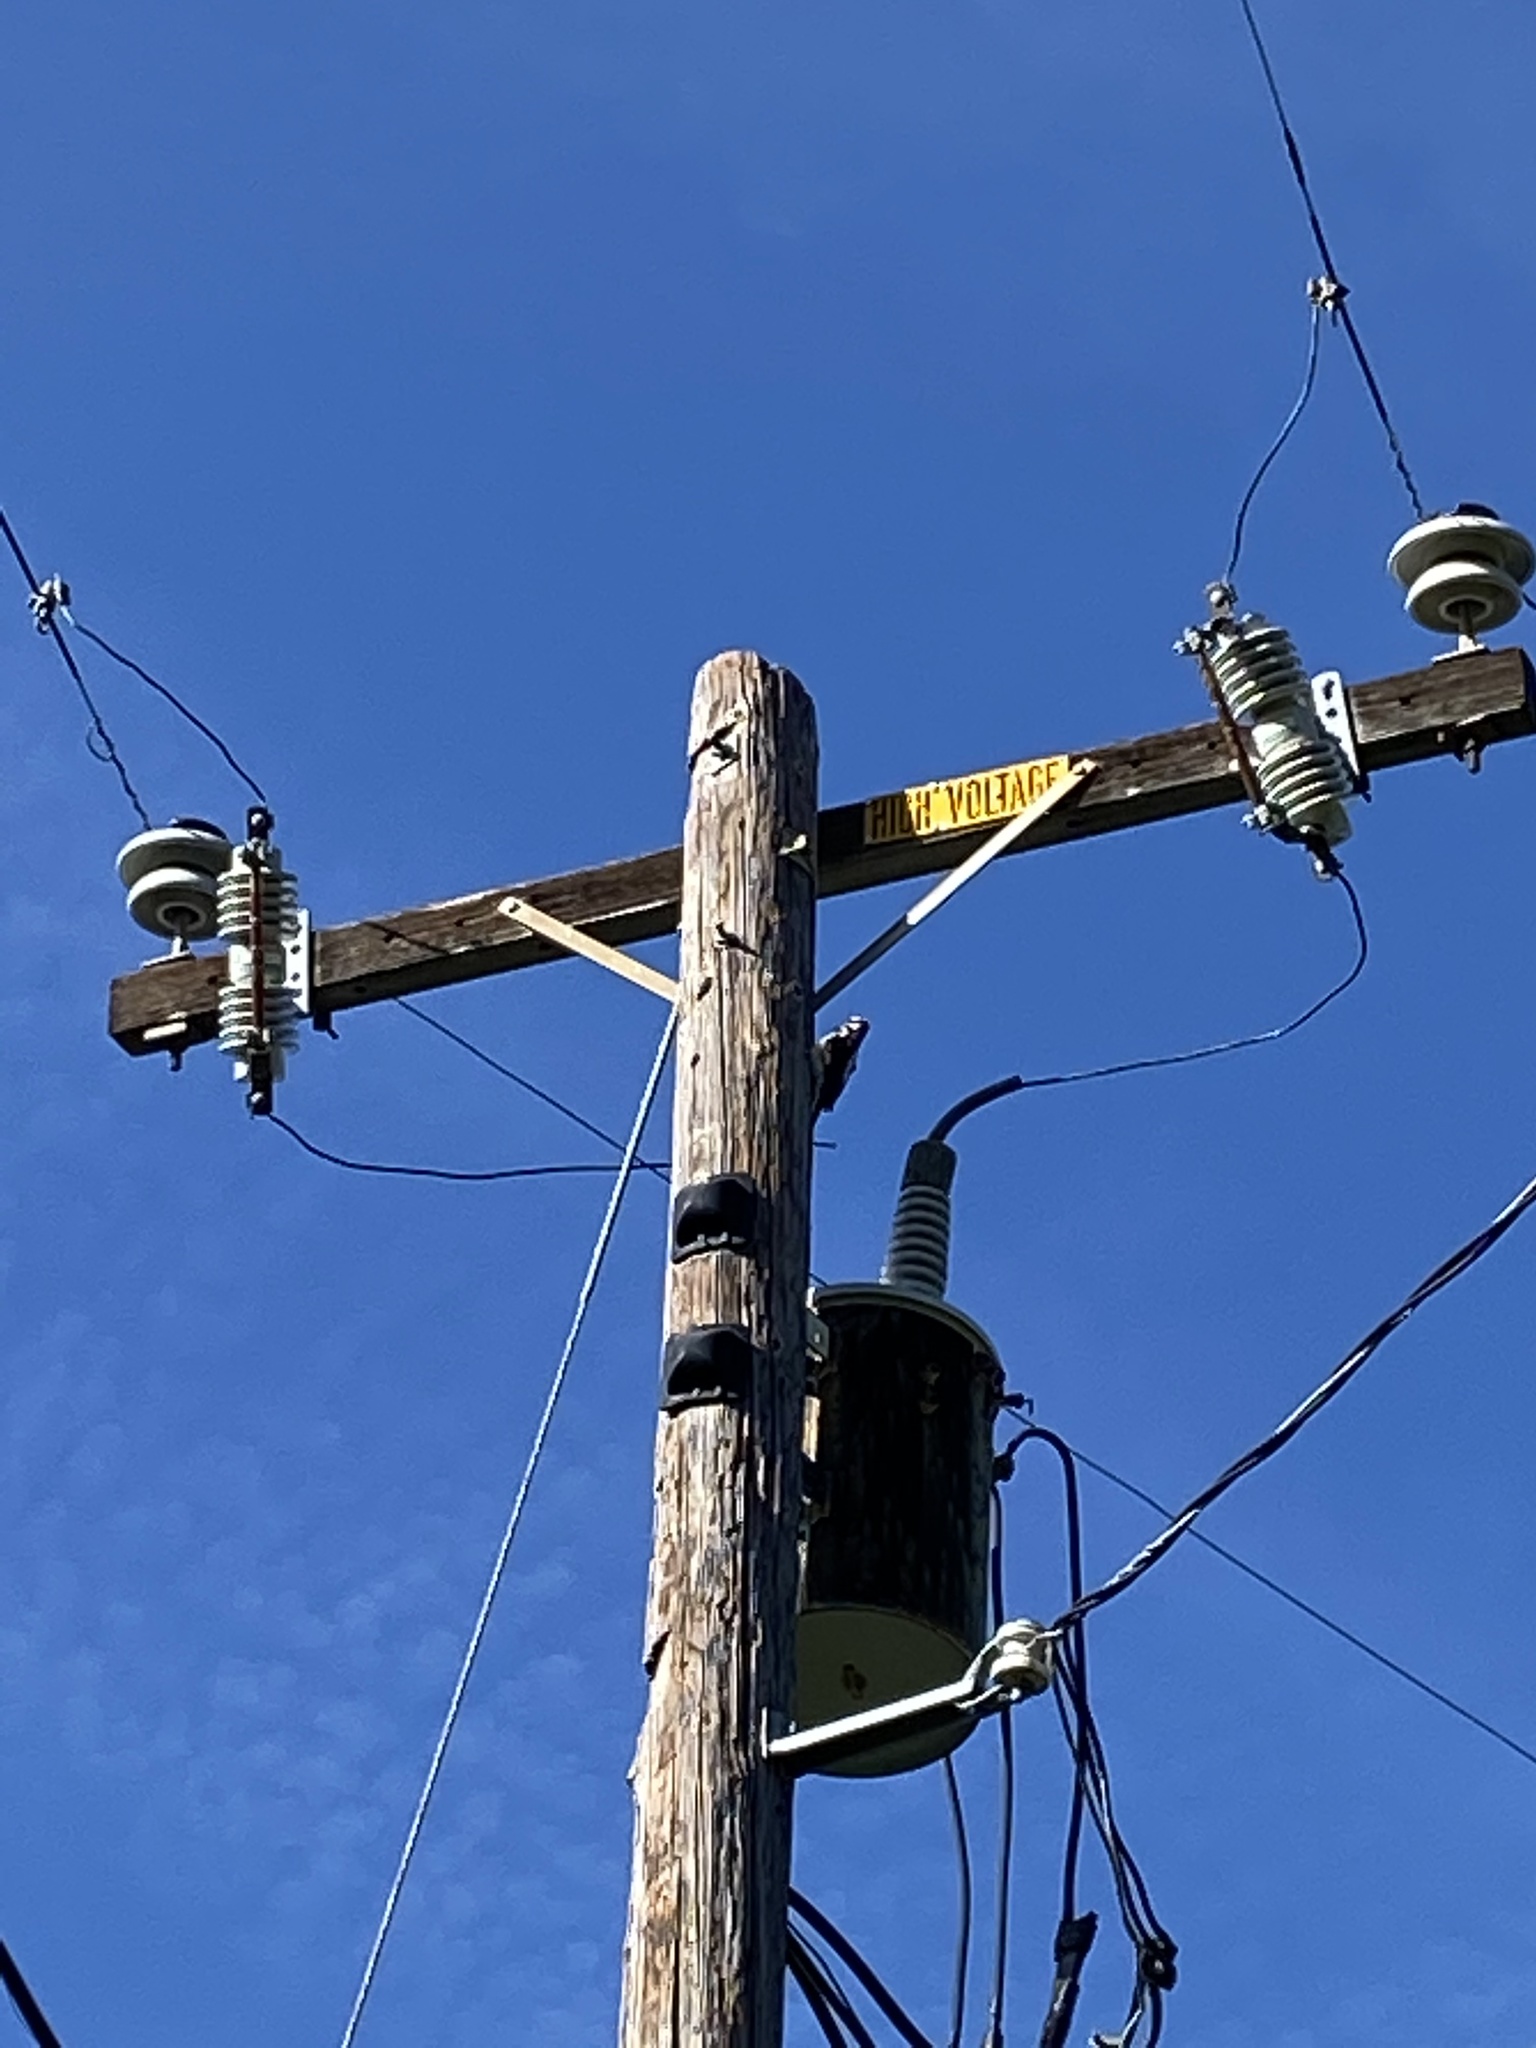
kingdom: Animalia
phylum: Chordata
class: Aves
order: Piciformes
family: Picidae
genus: Dryobates
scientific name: Dryobates
